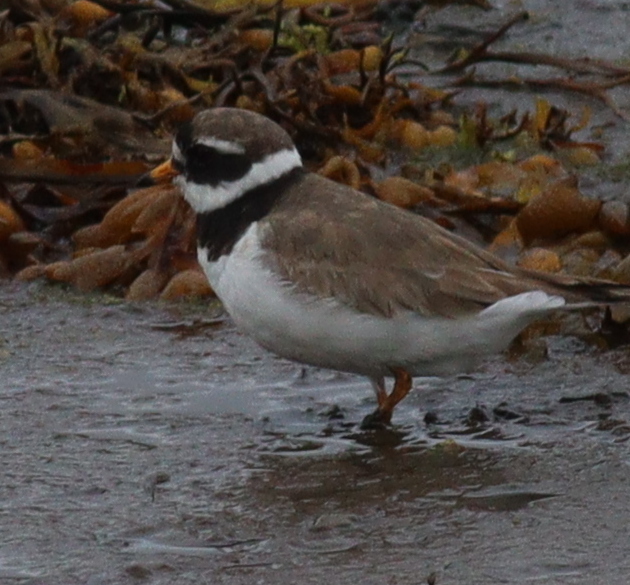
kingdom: Animalia
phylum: Chordata
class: Aves
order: Charadriiformes
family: Charadriidae
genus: Charadrius
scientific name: Charadrius hiaticula
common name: Common ringed plover
